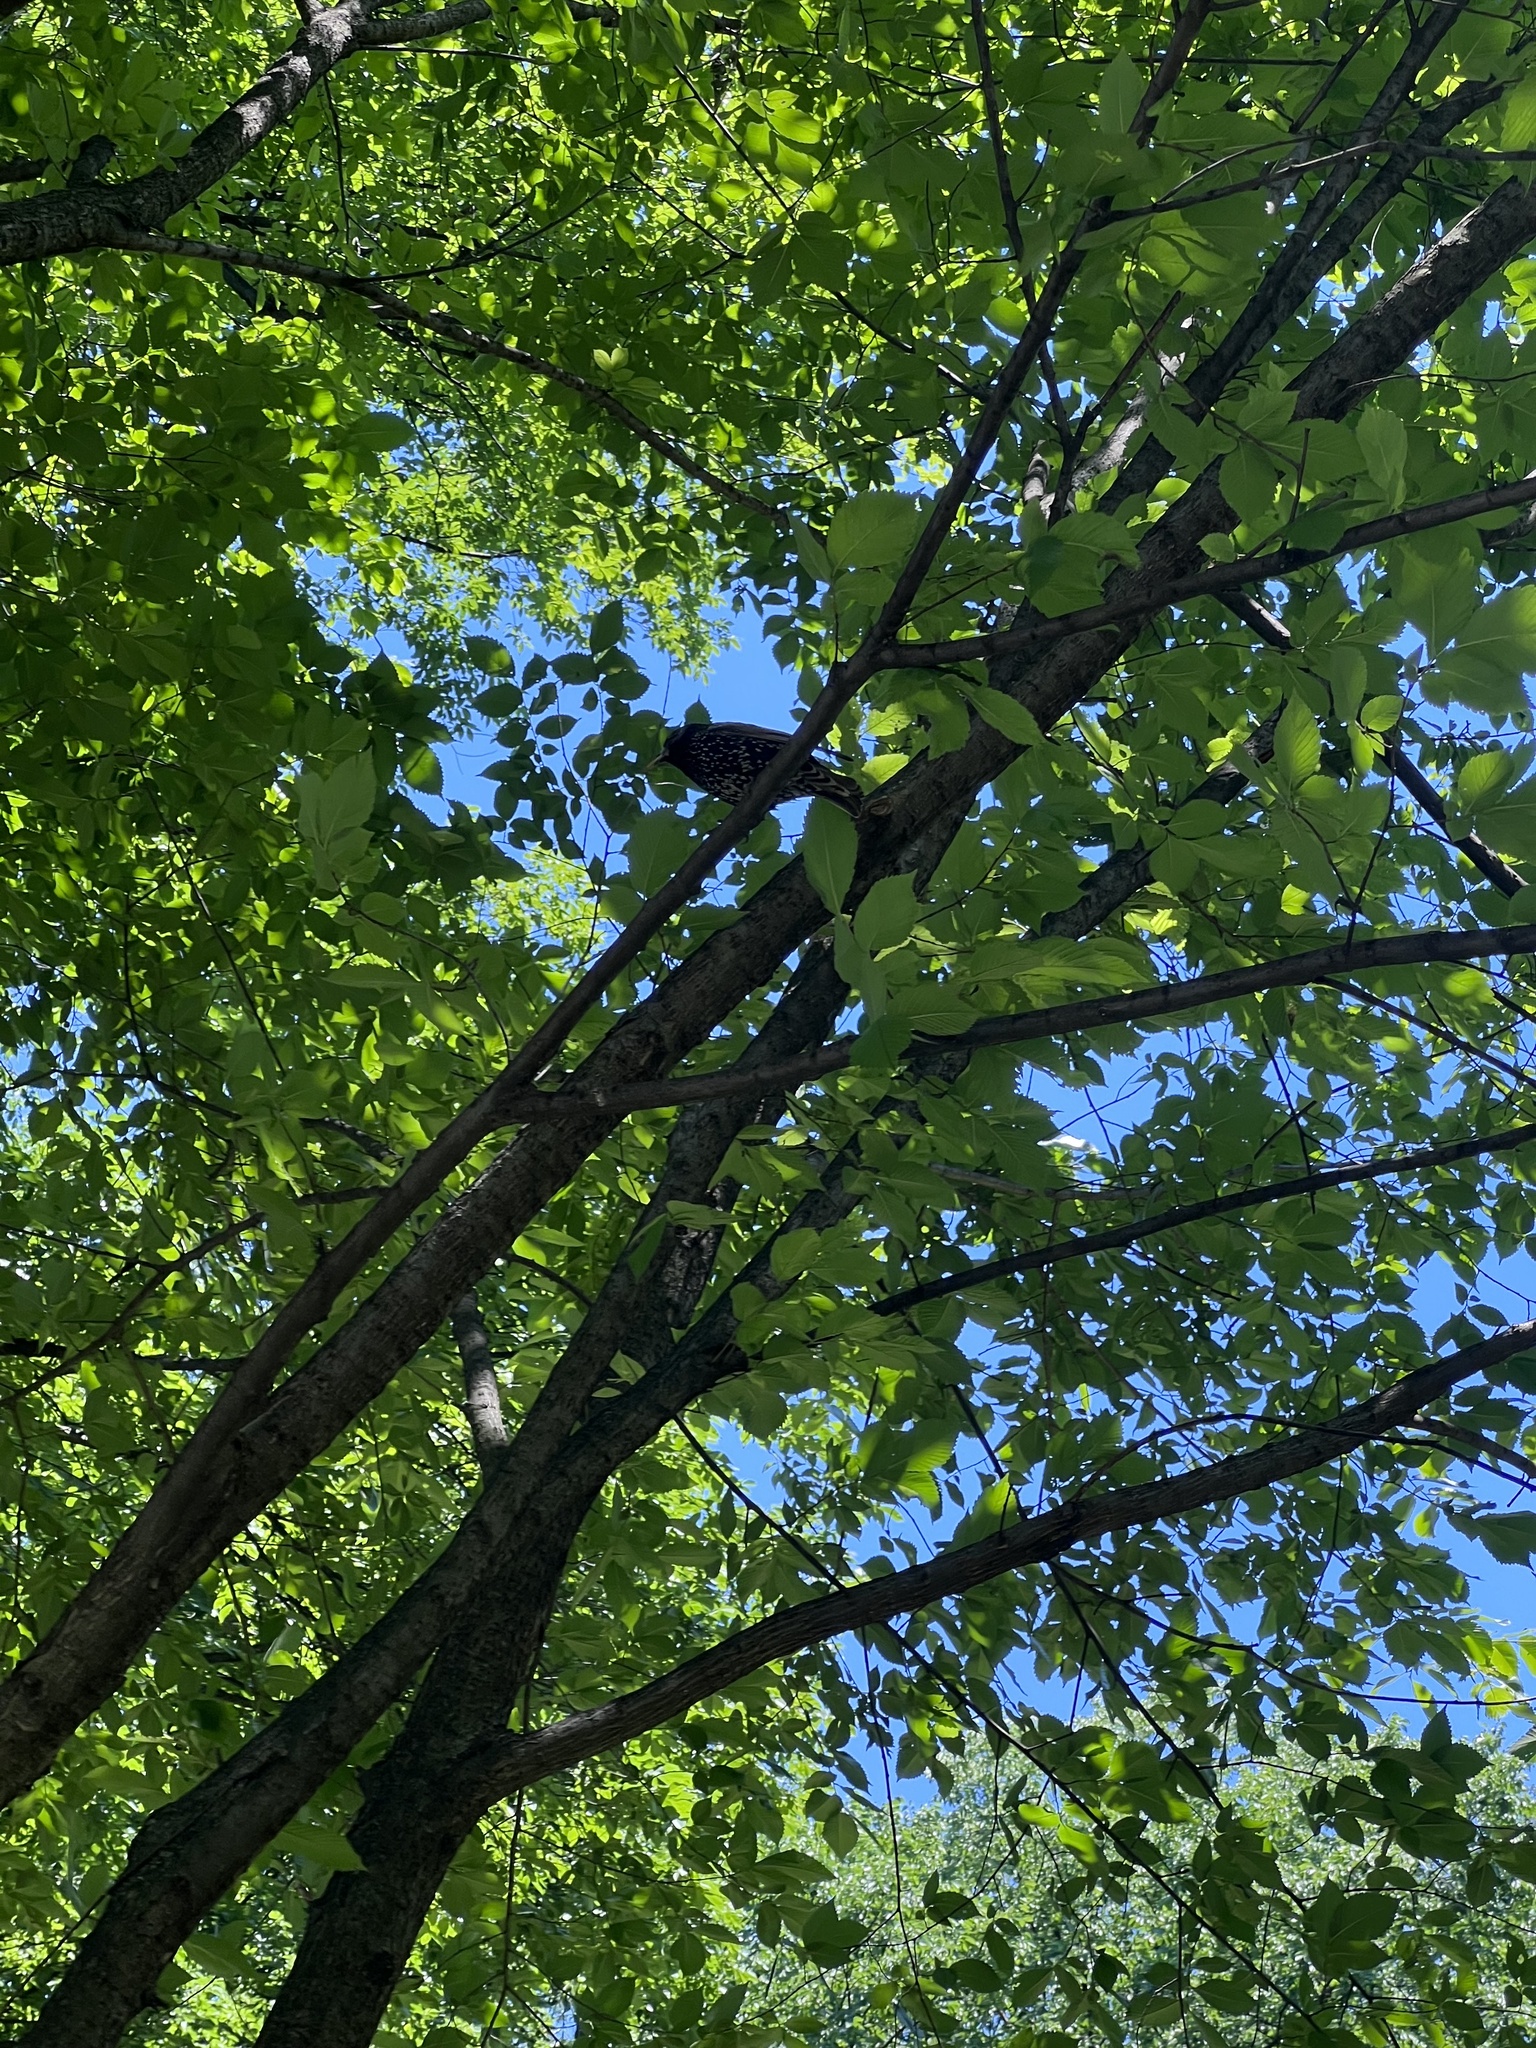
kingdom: Animalia
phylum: Chordata
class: Aves
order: Passeriformes
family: Sturnidae
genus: Sturnus
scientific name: Sturnus vulgaris
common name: Common starling
